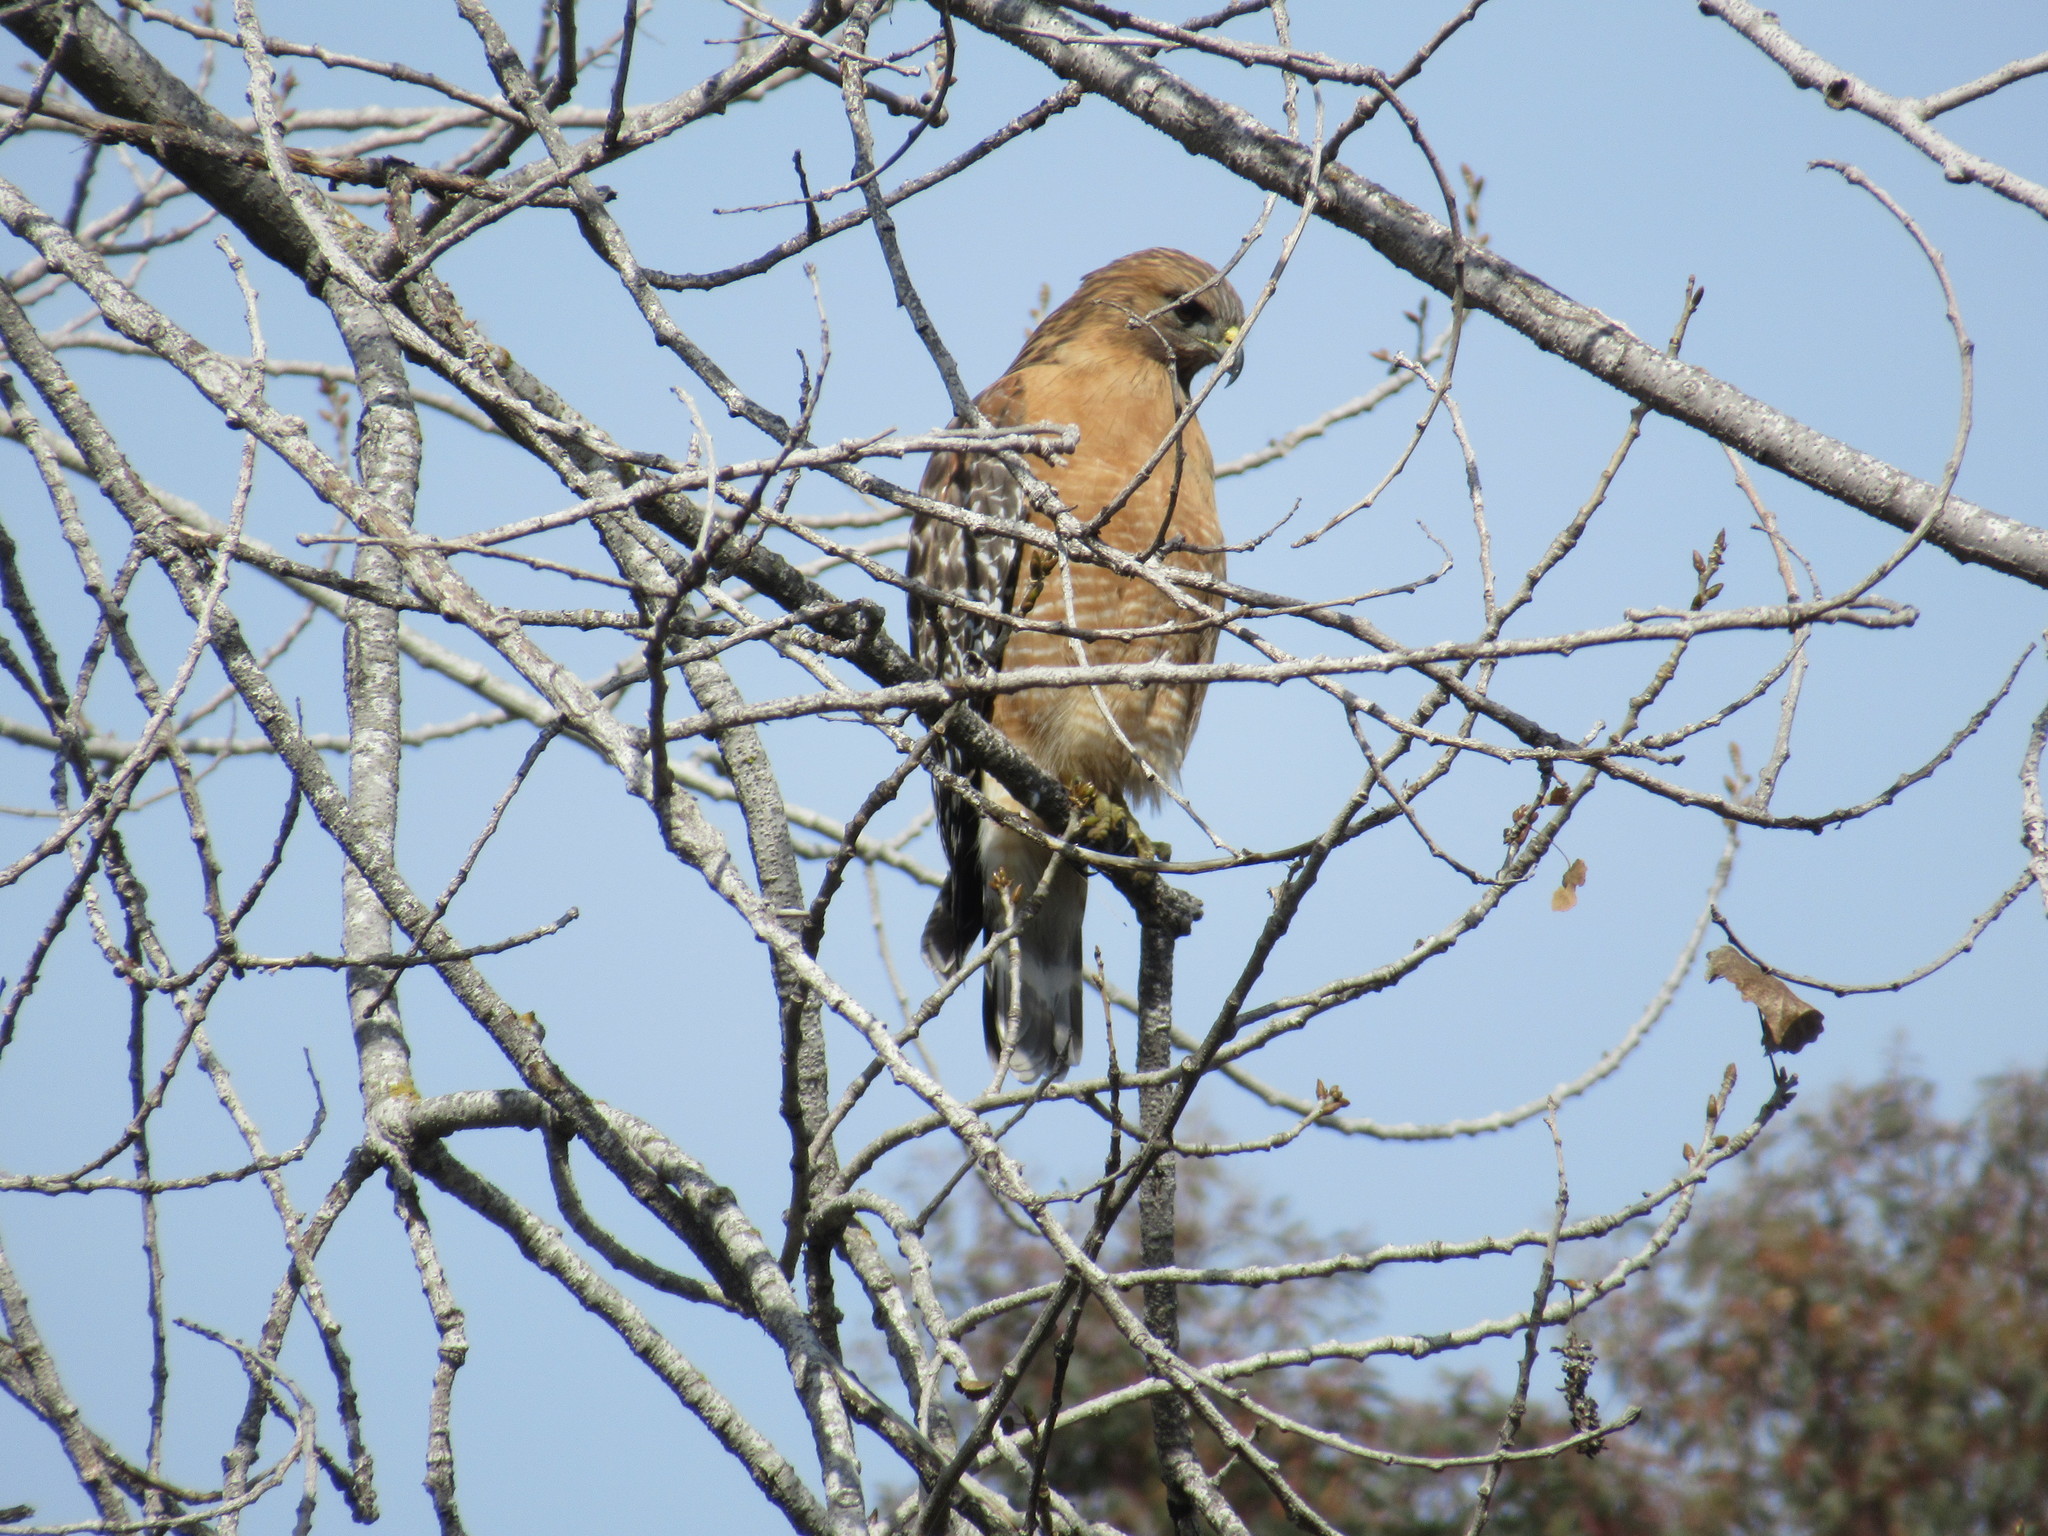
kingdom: Animalia
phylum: Chordata
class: Aves
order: Accipitriformes
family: Accipitridae
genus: Buteo
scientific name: Buteo lineatus
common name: Red-shouldered hawk
